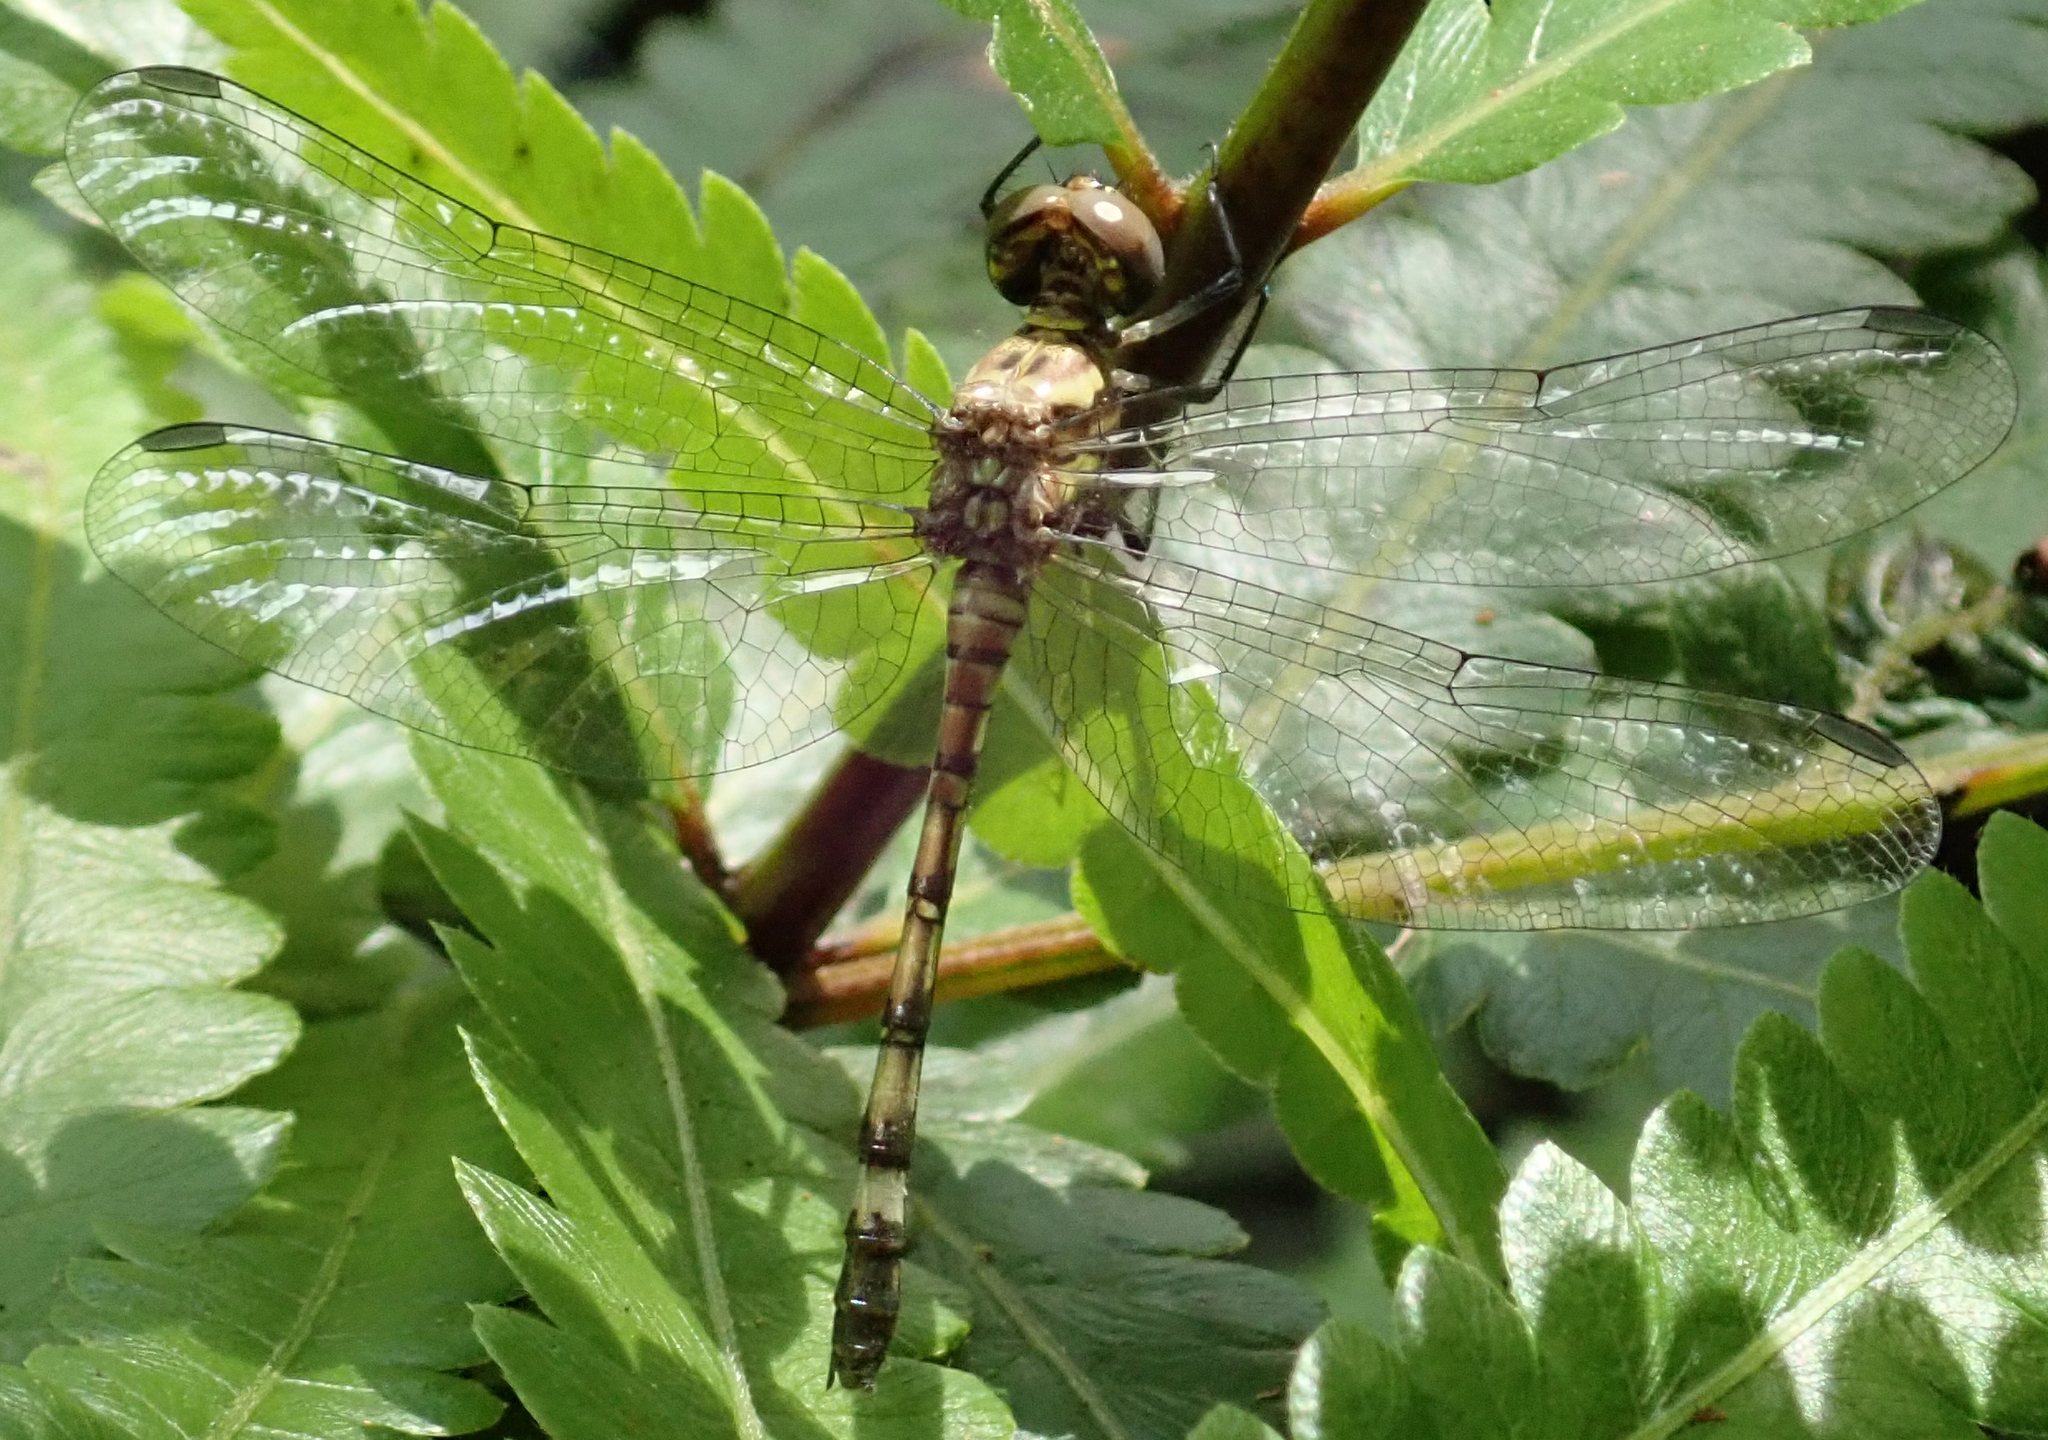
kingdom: Animalia
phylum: Arthropoda
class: Insecta
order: Odonata
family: Libellulidae
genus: Notiothemis
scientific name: Notiothemis jonesi
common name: Eastern elf
